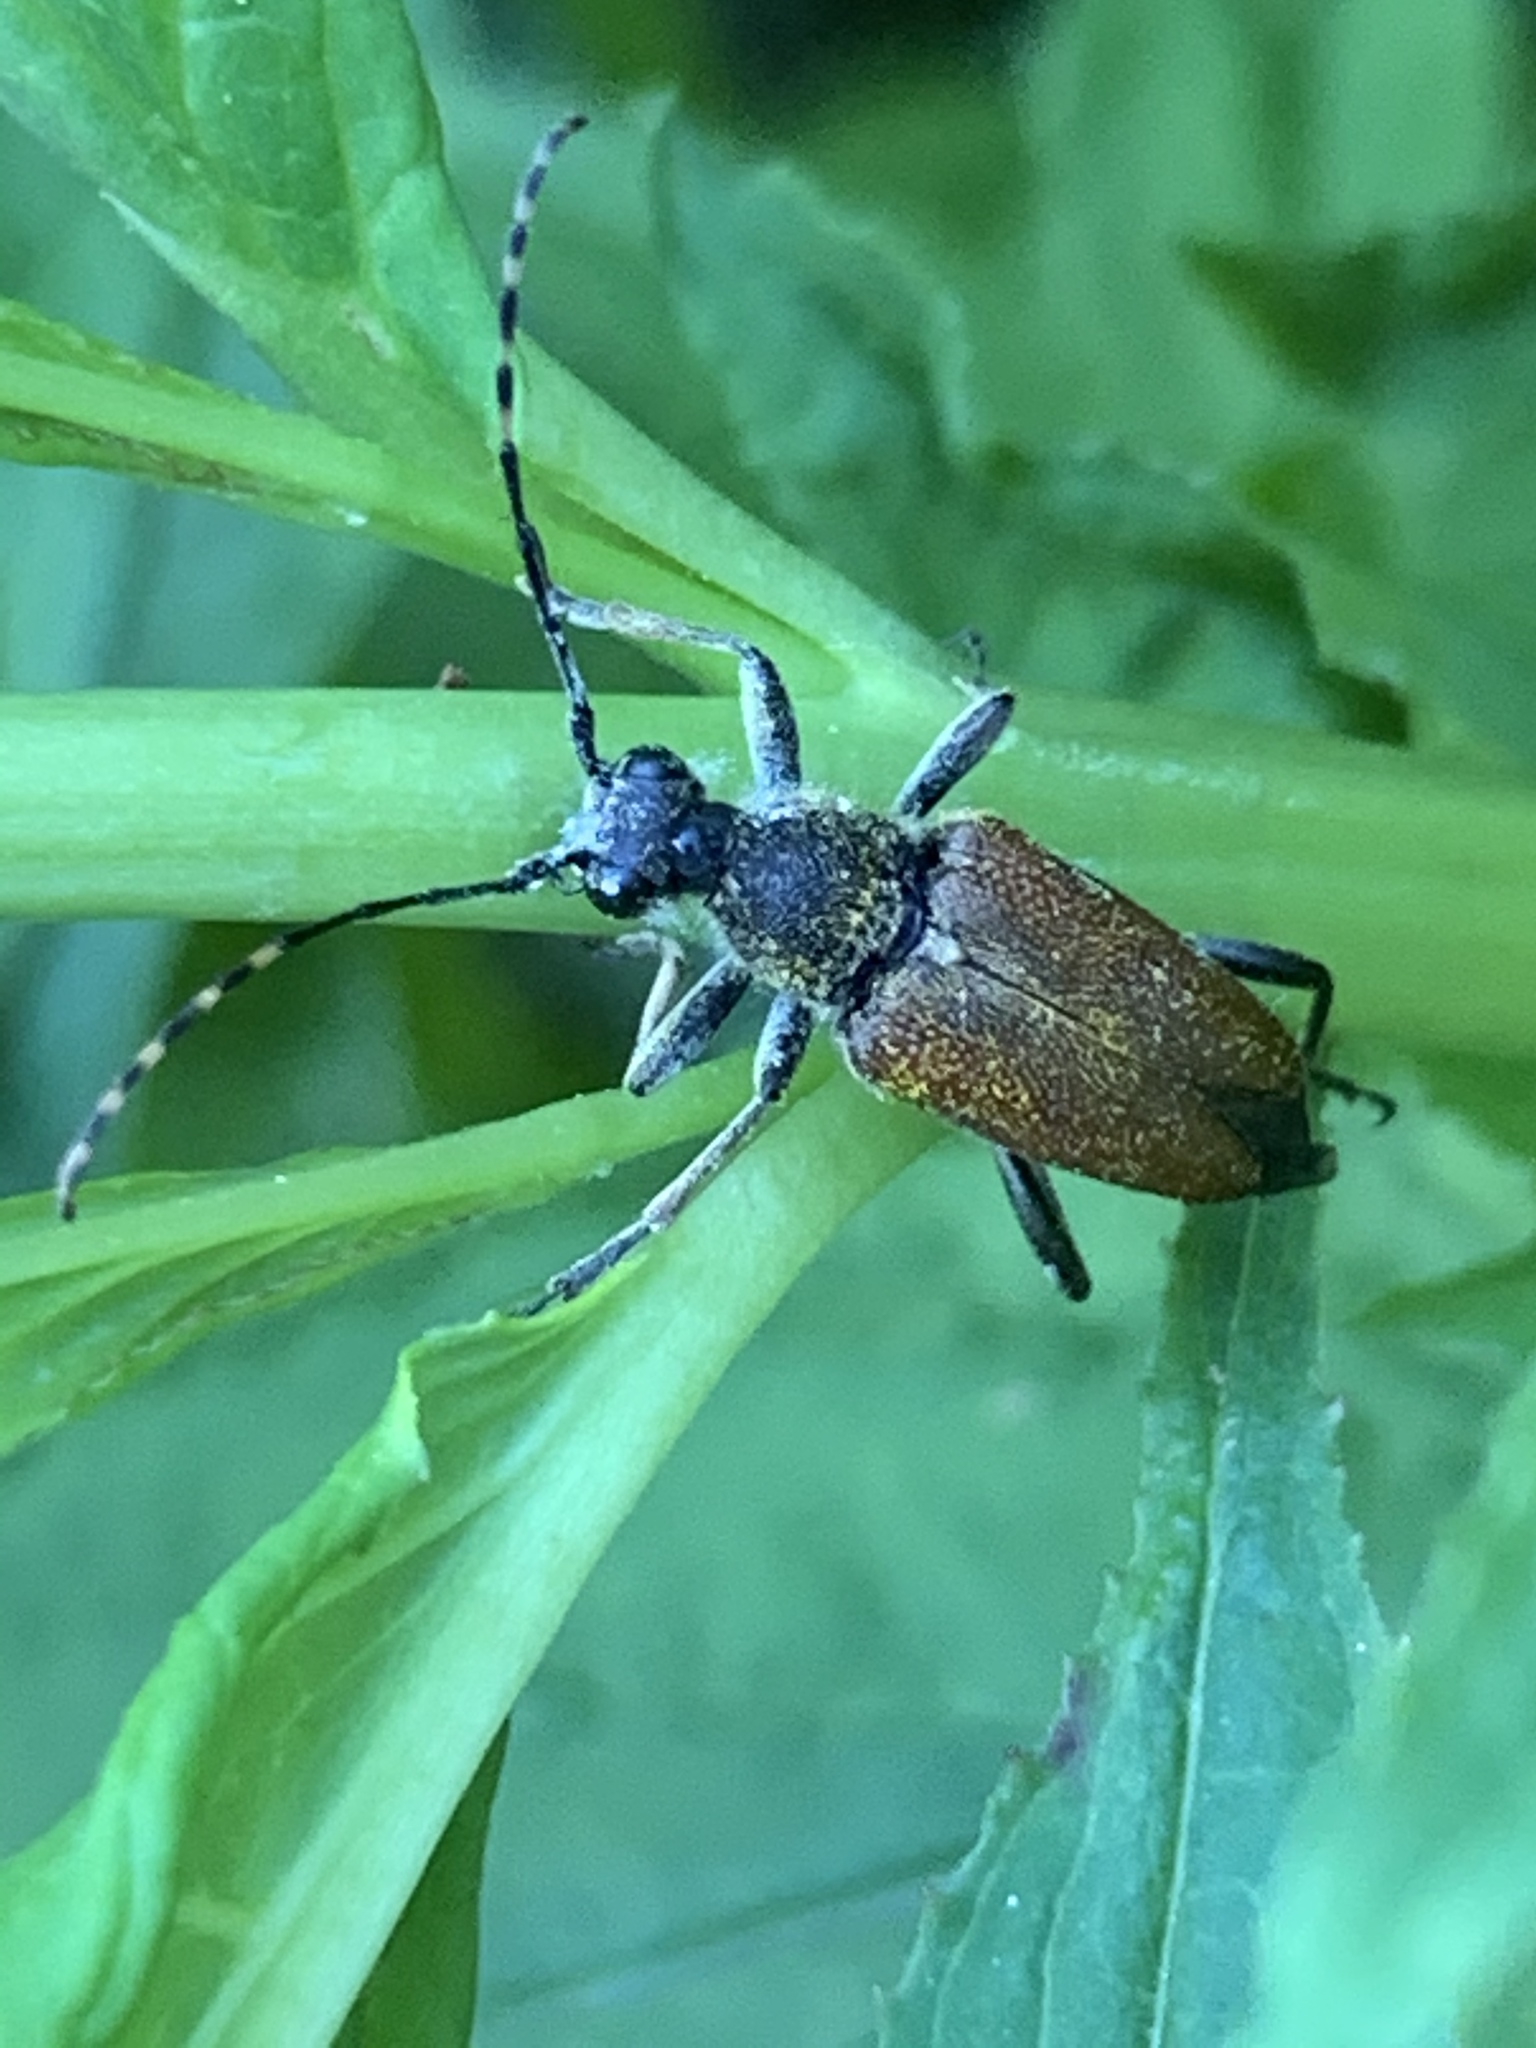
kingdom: Animalia
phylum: Arthropoda
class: Insecta
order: Coleoptera
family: Cerambycidae
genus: Brachyleptura
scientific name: Brachyleptura rubrica
